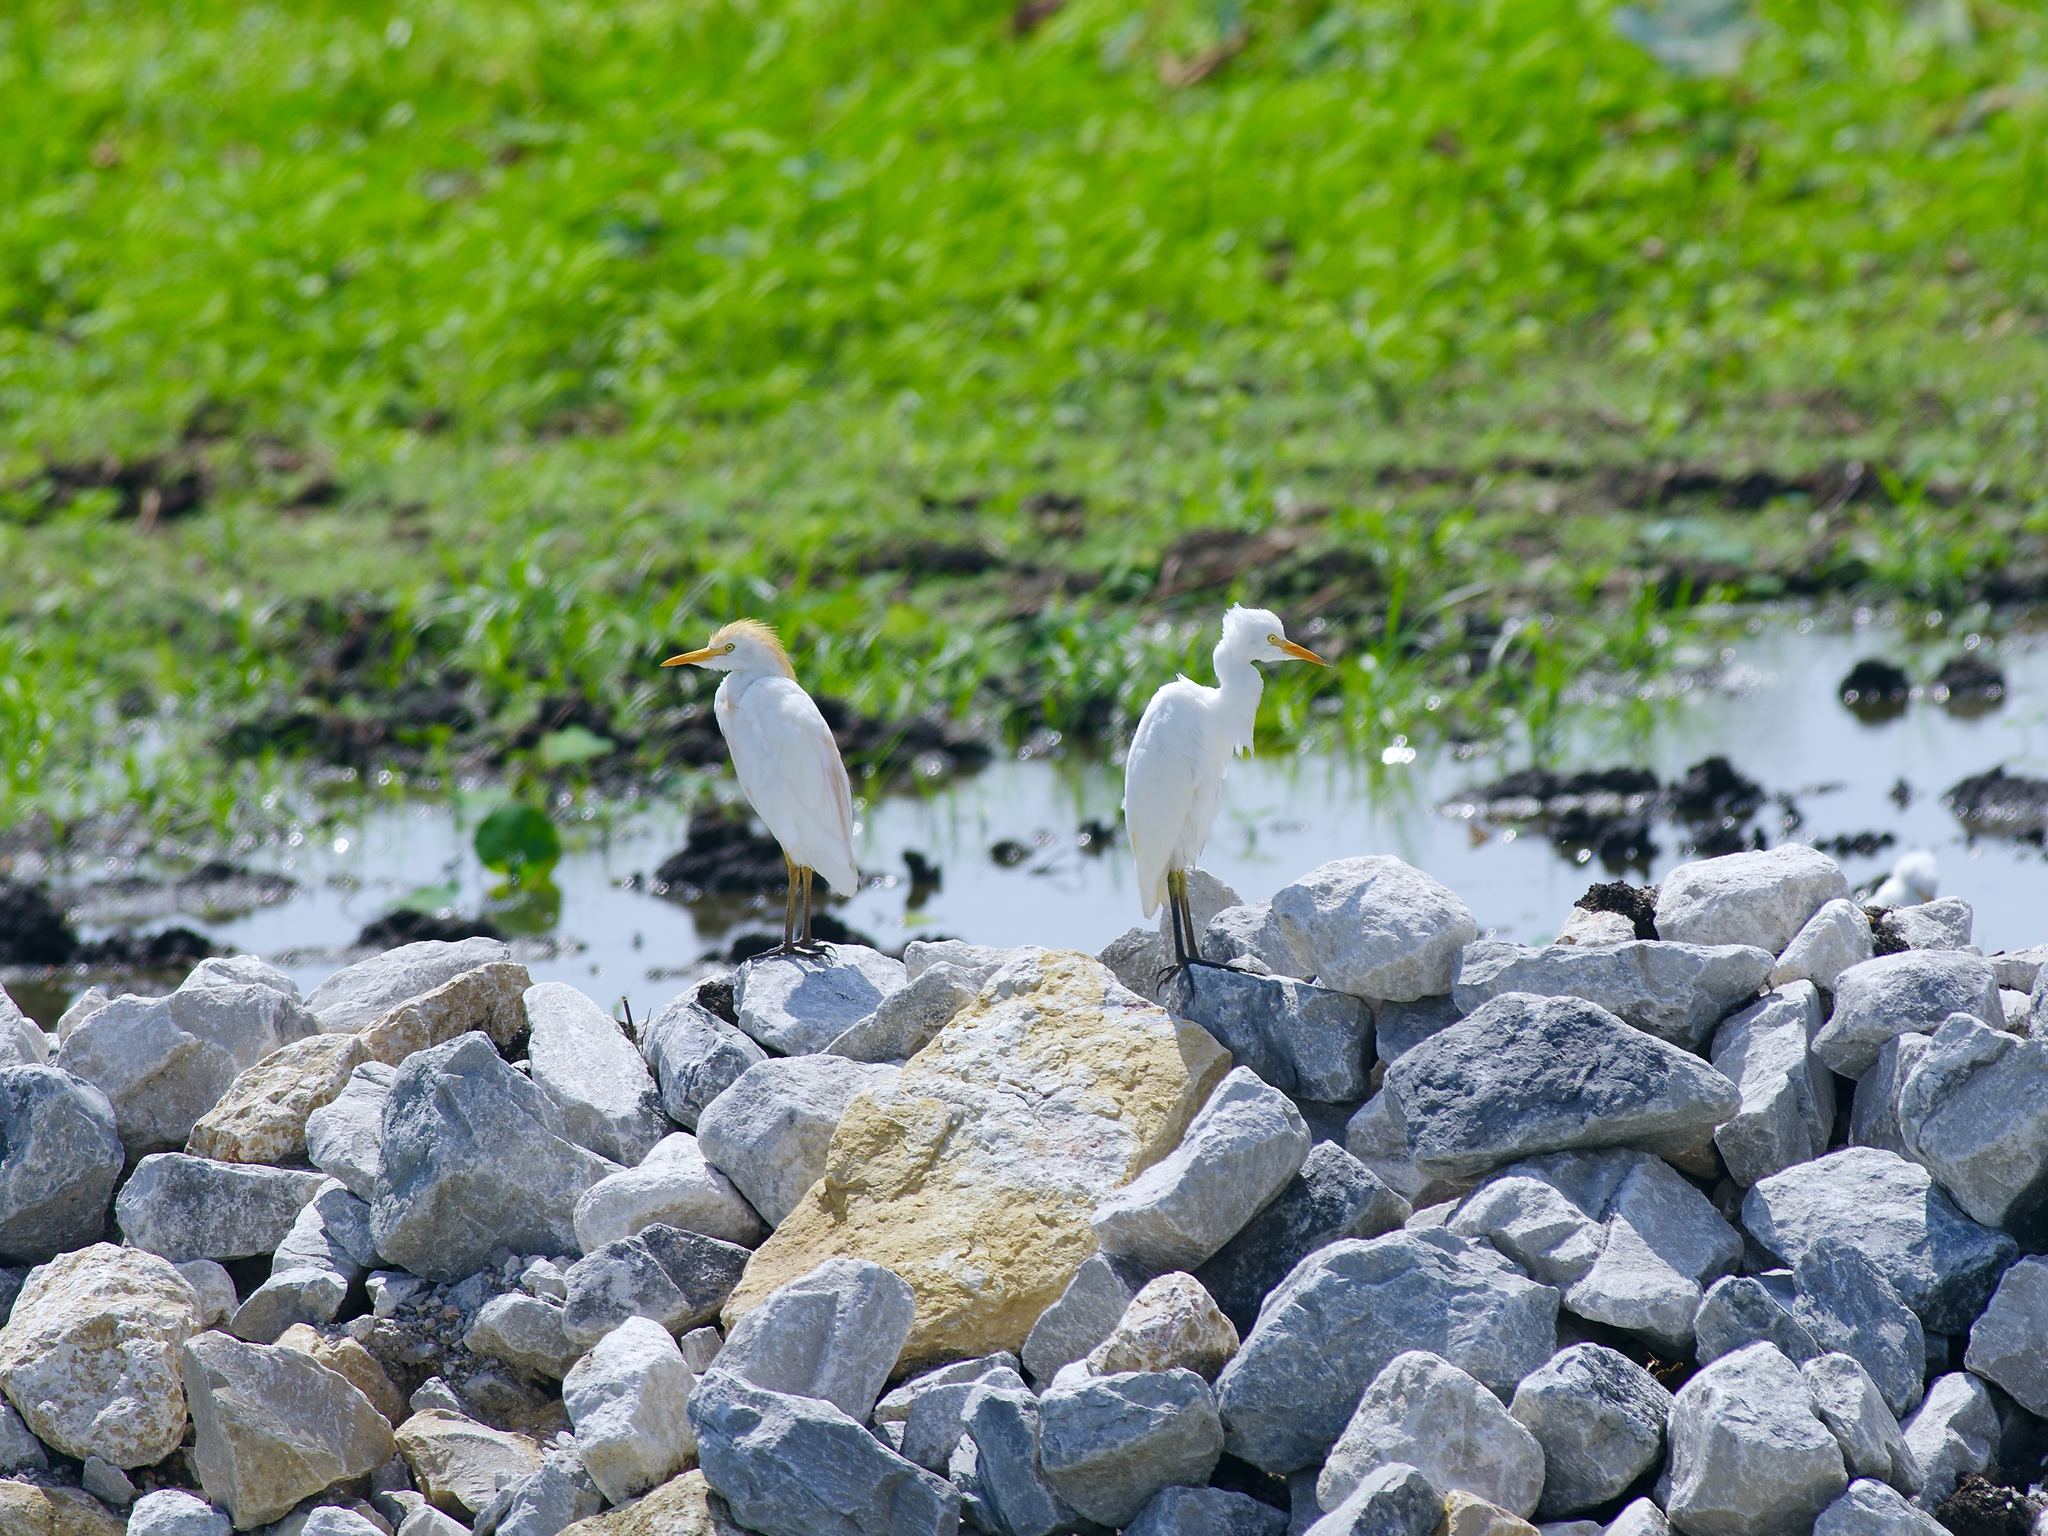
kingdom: Animalia
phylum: Chordata
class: Aves
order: Pelecaniformes
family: Ardeidae
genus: Bubulcus
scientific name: Bubulcus ibis
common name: Cattle egret
